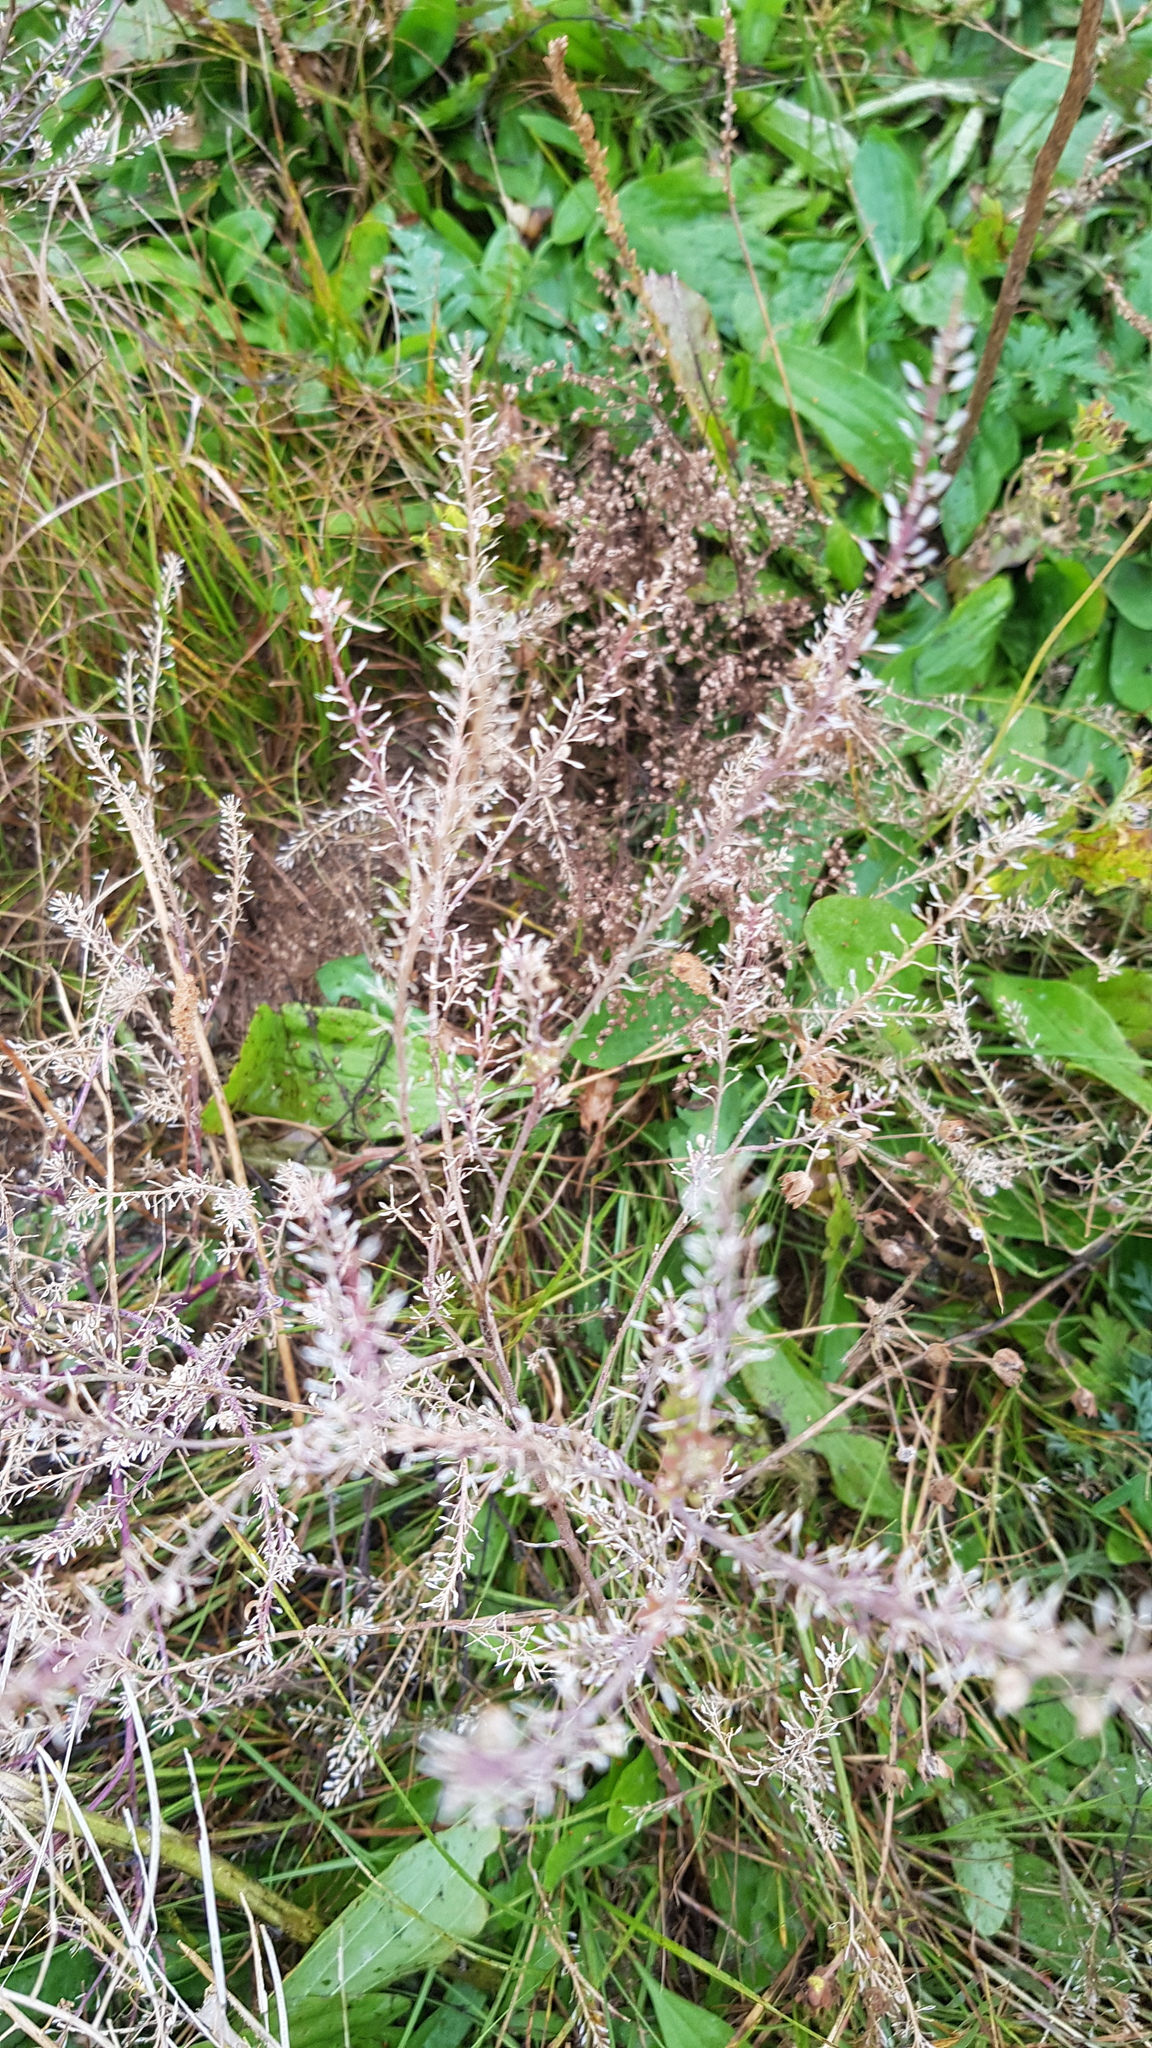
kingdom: Plantae
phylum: Tracheophyta
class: Magnoliopsida
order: Brassicales
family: Brassicaceae
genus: Lepidium
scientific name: Lepidium ruderale
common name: Narrow-leaved pepperwort
